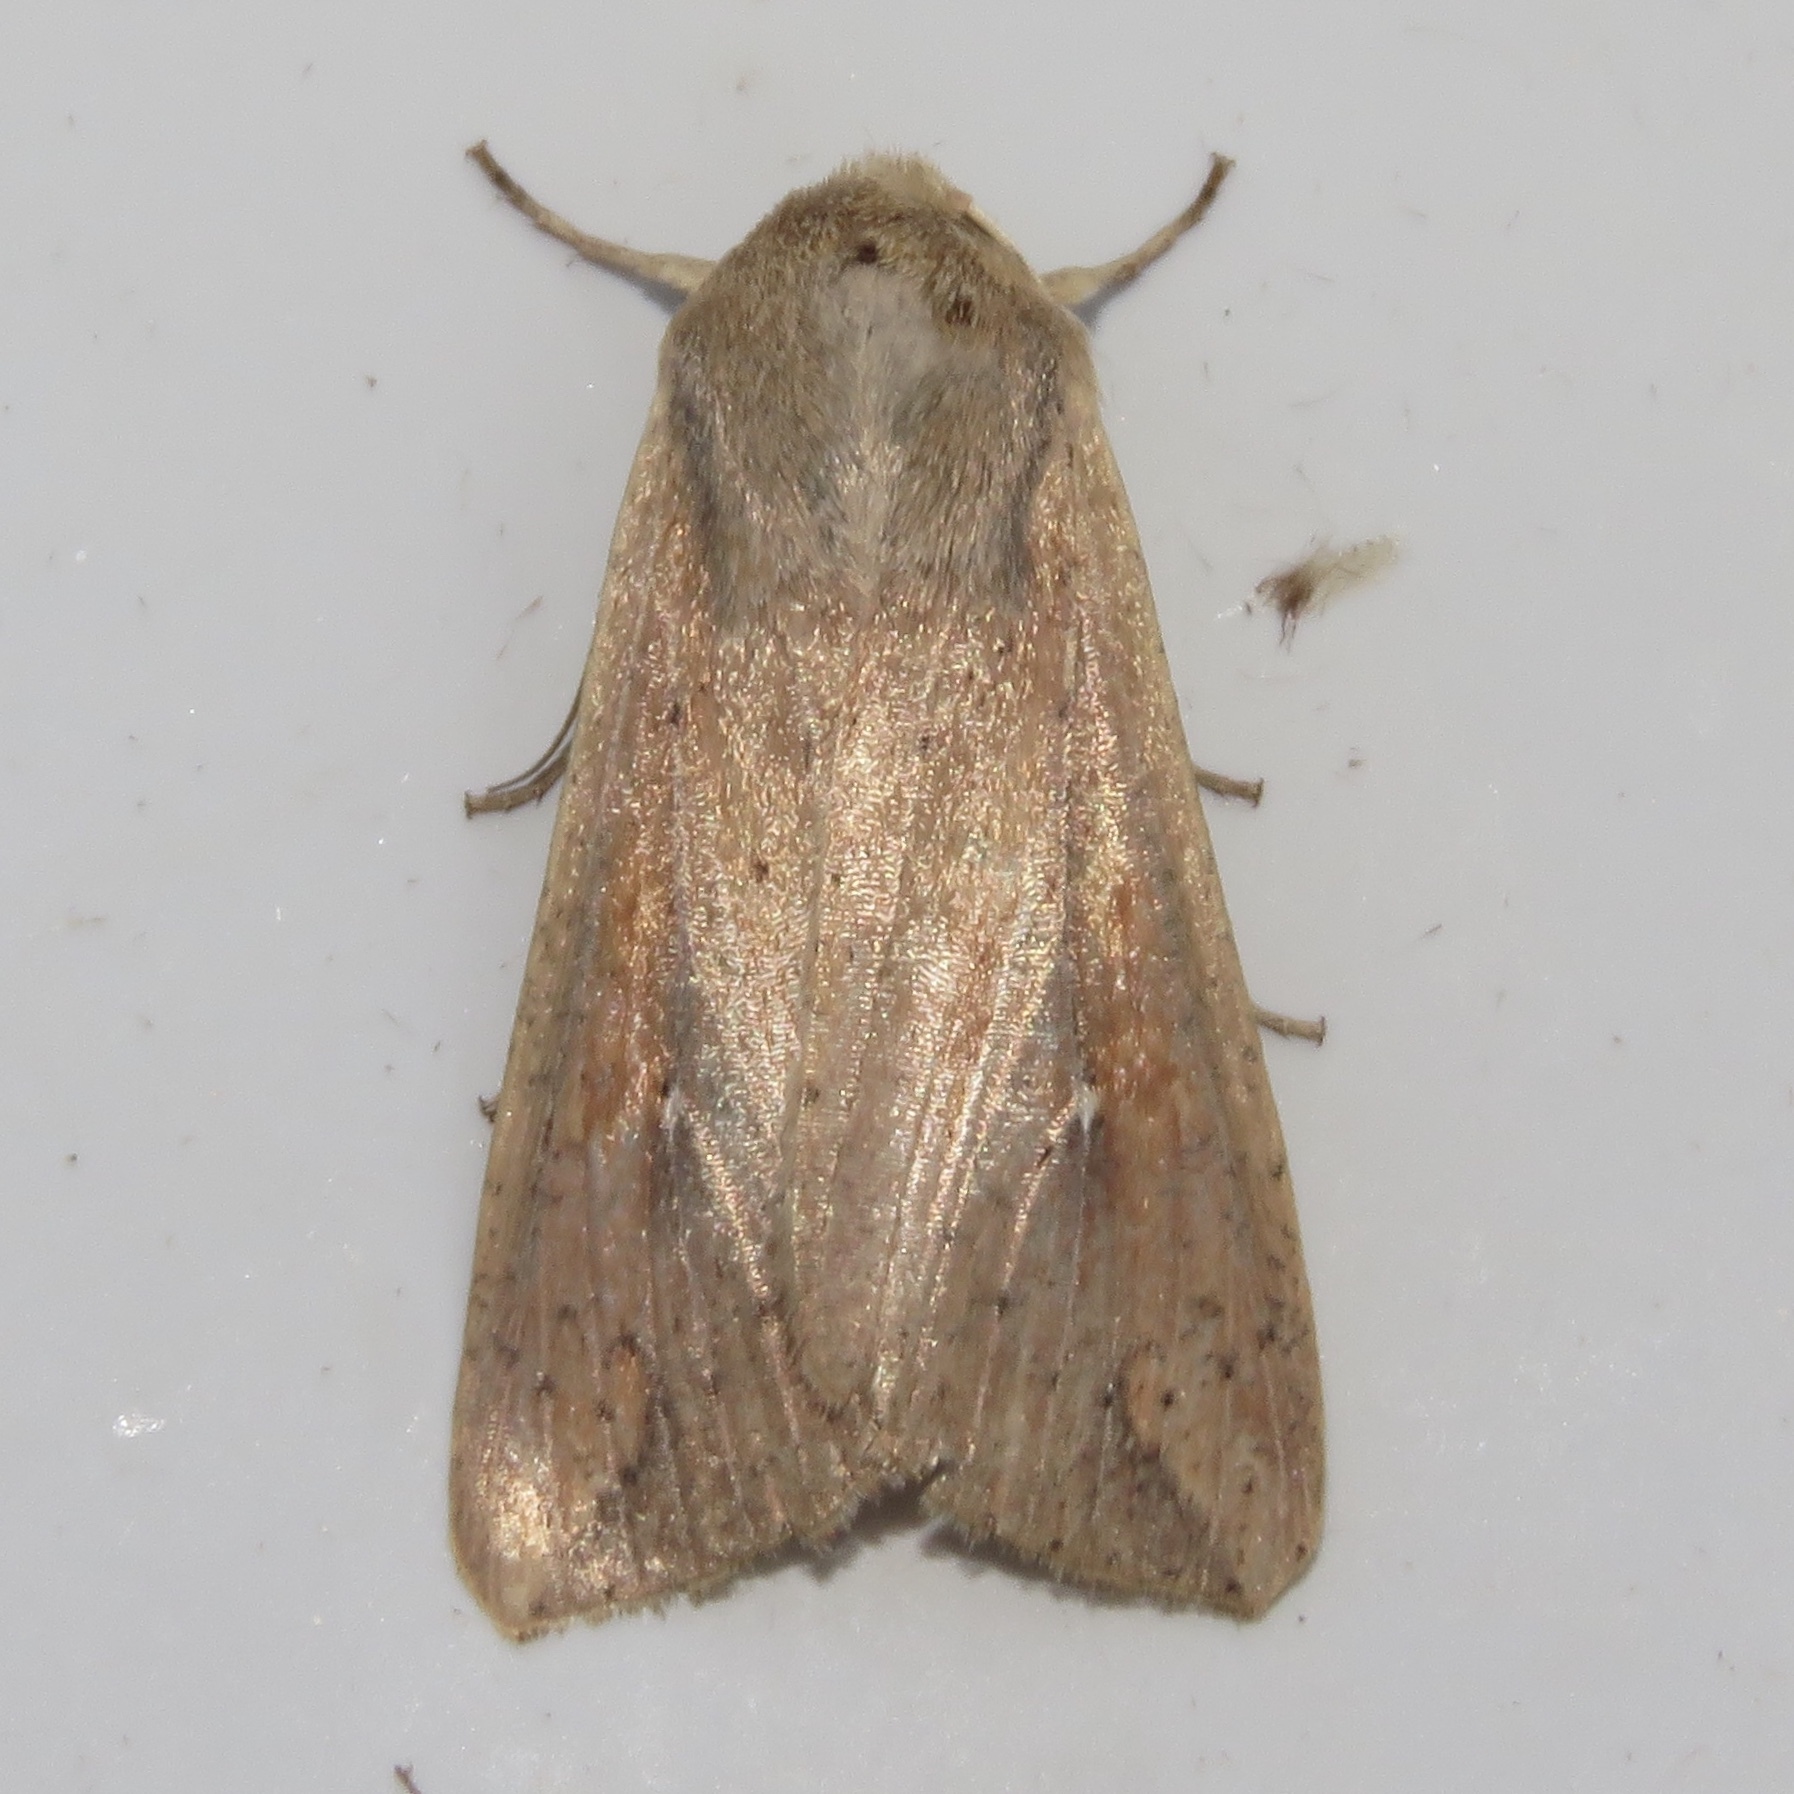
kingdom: Animalia
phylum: Arthropoda
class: Insecta
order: Lepidoptera
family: Noctuidae
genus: Mythimna
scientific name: Mythimna unipuncta
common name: White-speck
